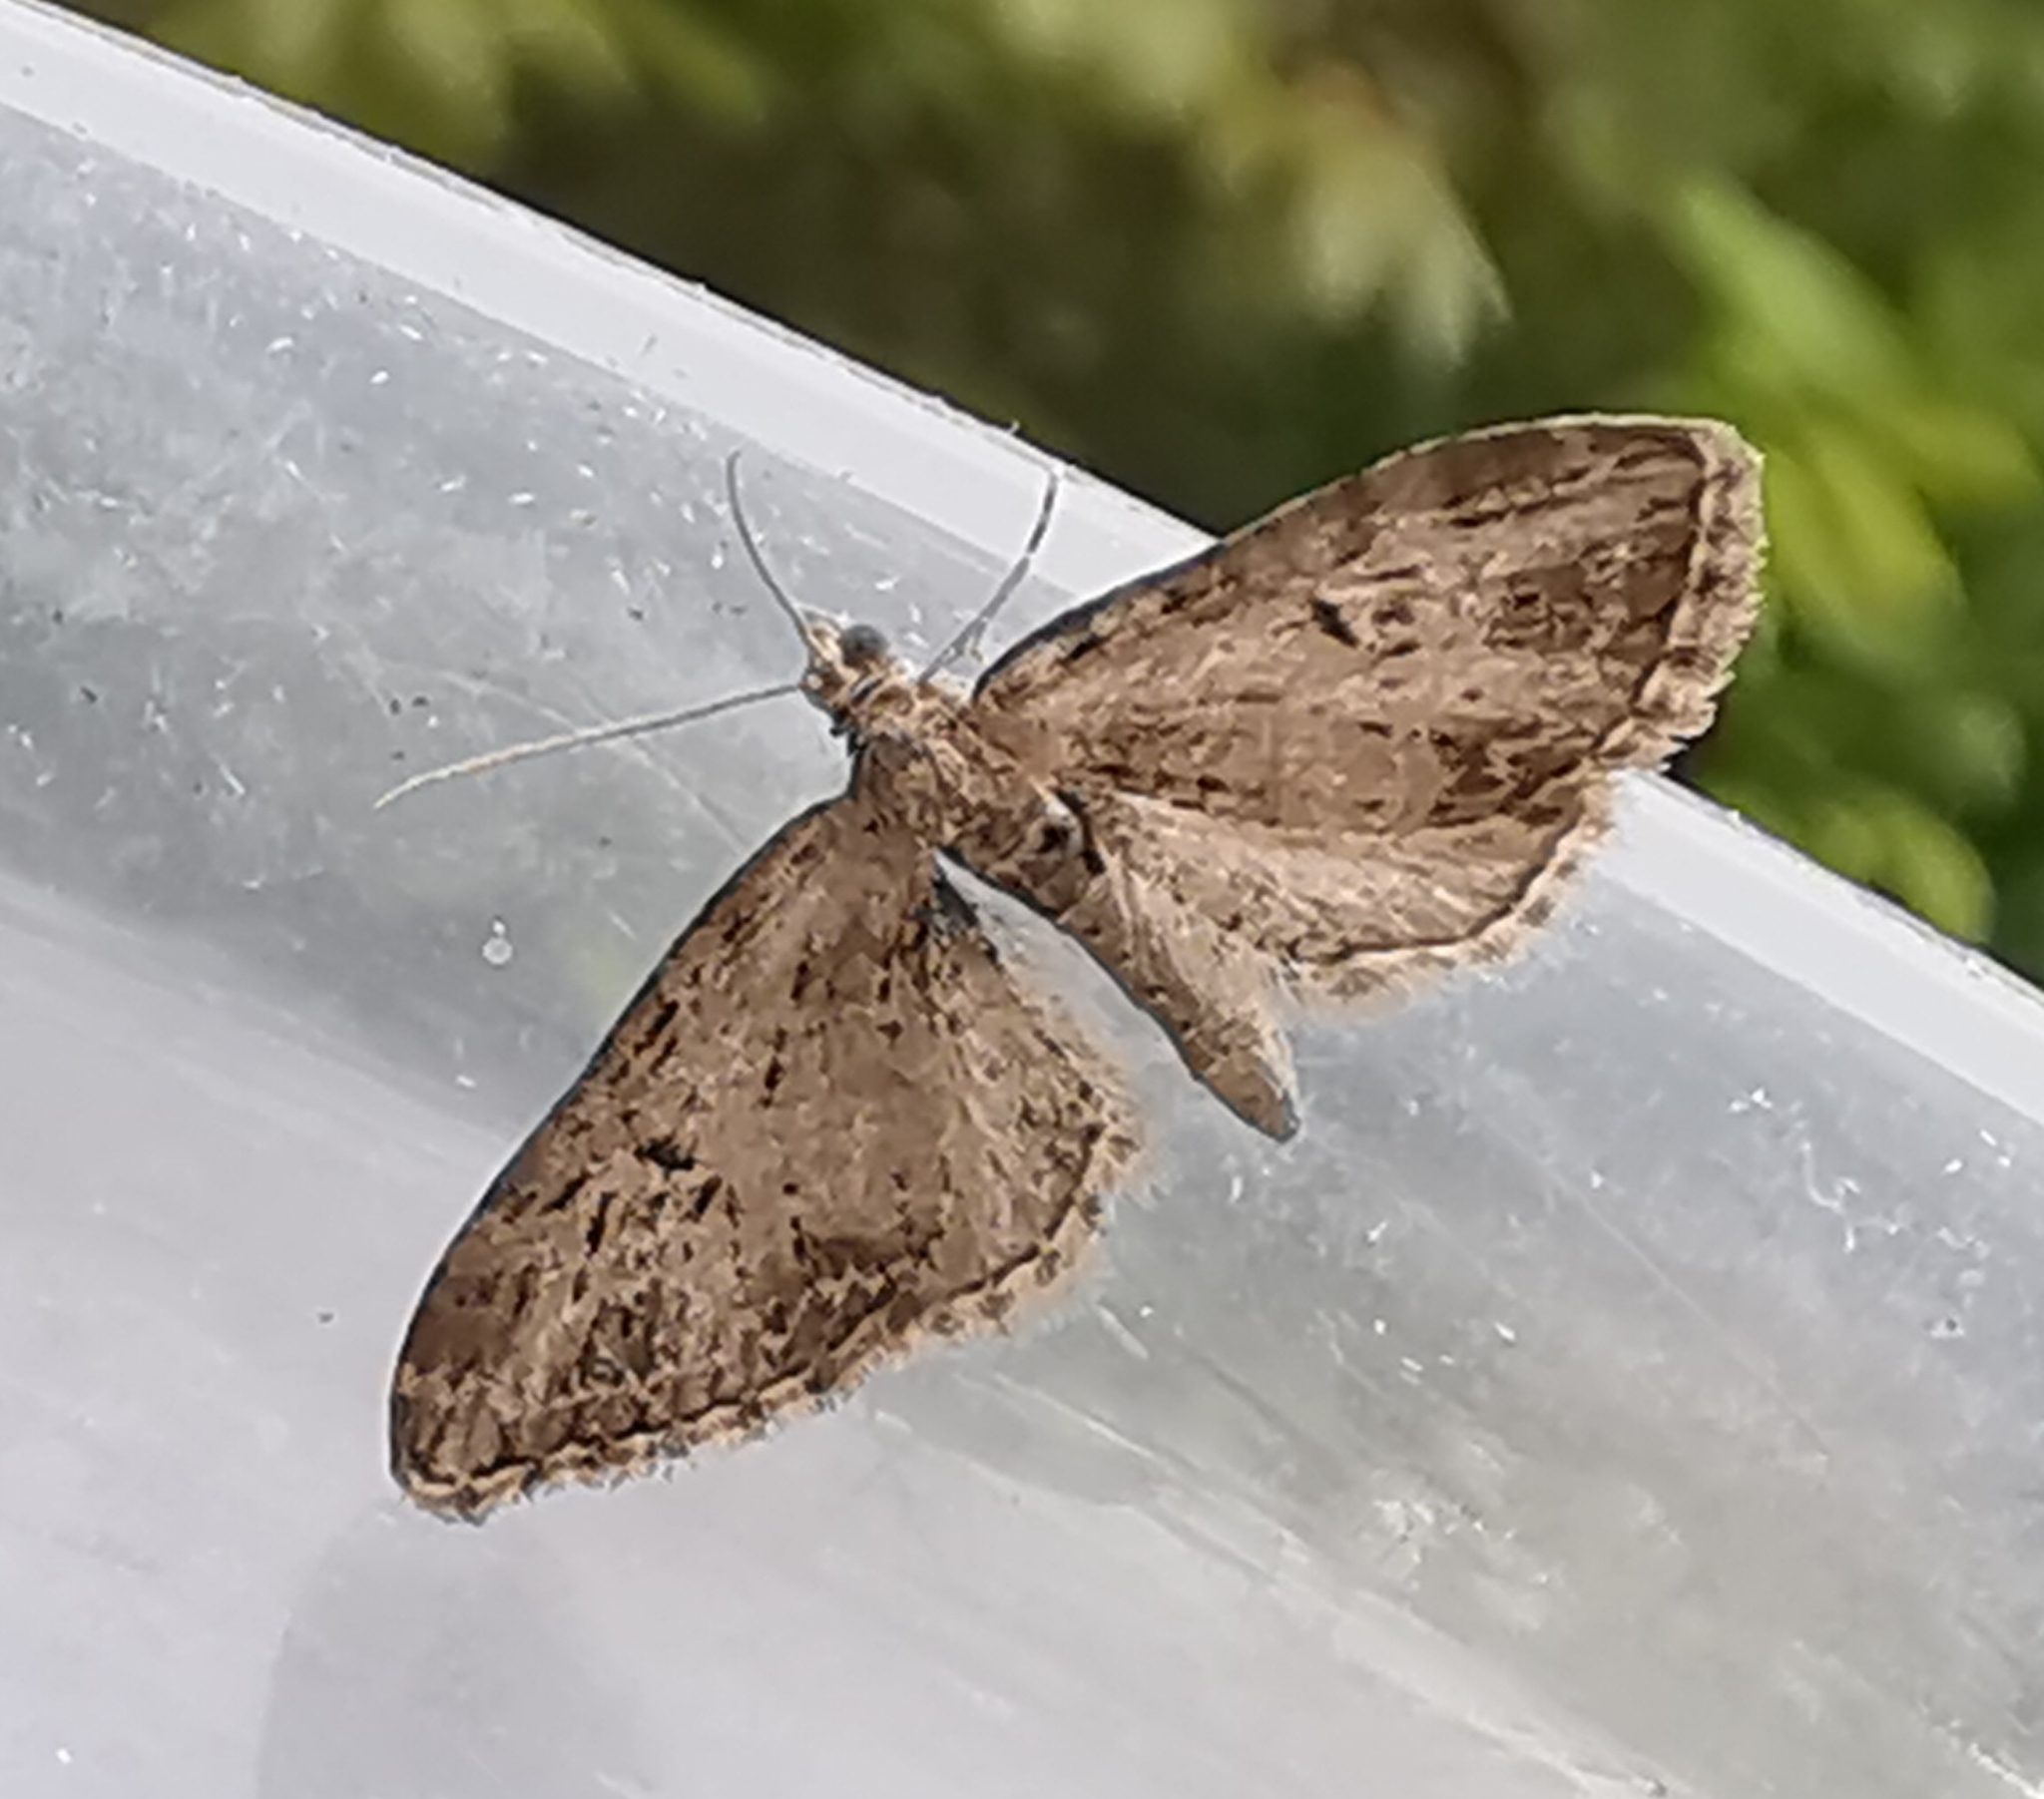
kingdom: Animalia
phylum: Arthropoda
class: Insecta
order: Lepidoptera
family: Geometridae
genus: Eupithecia
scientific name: Eupithecia exiguata
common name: Mottled pug
